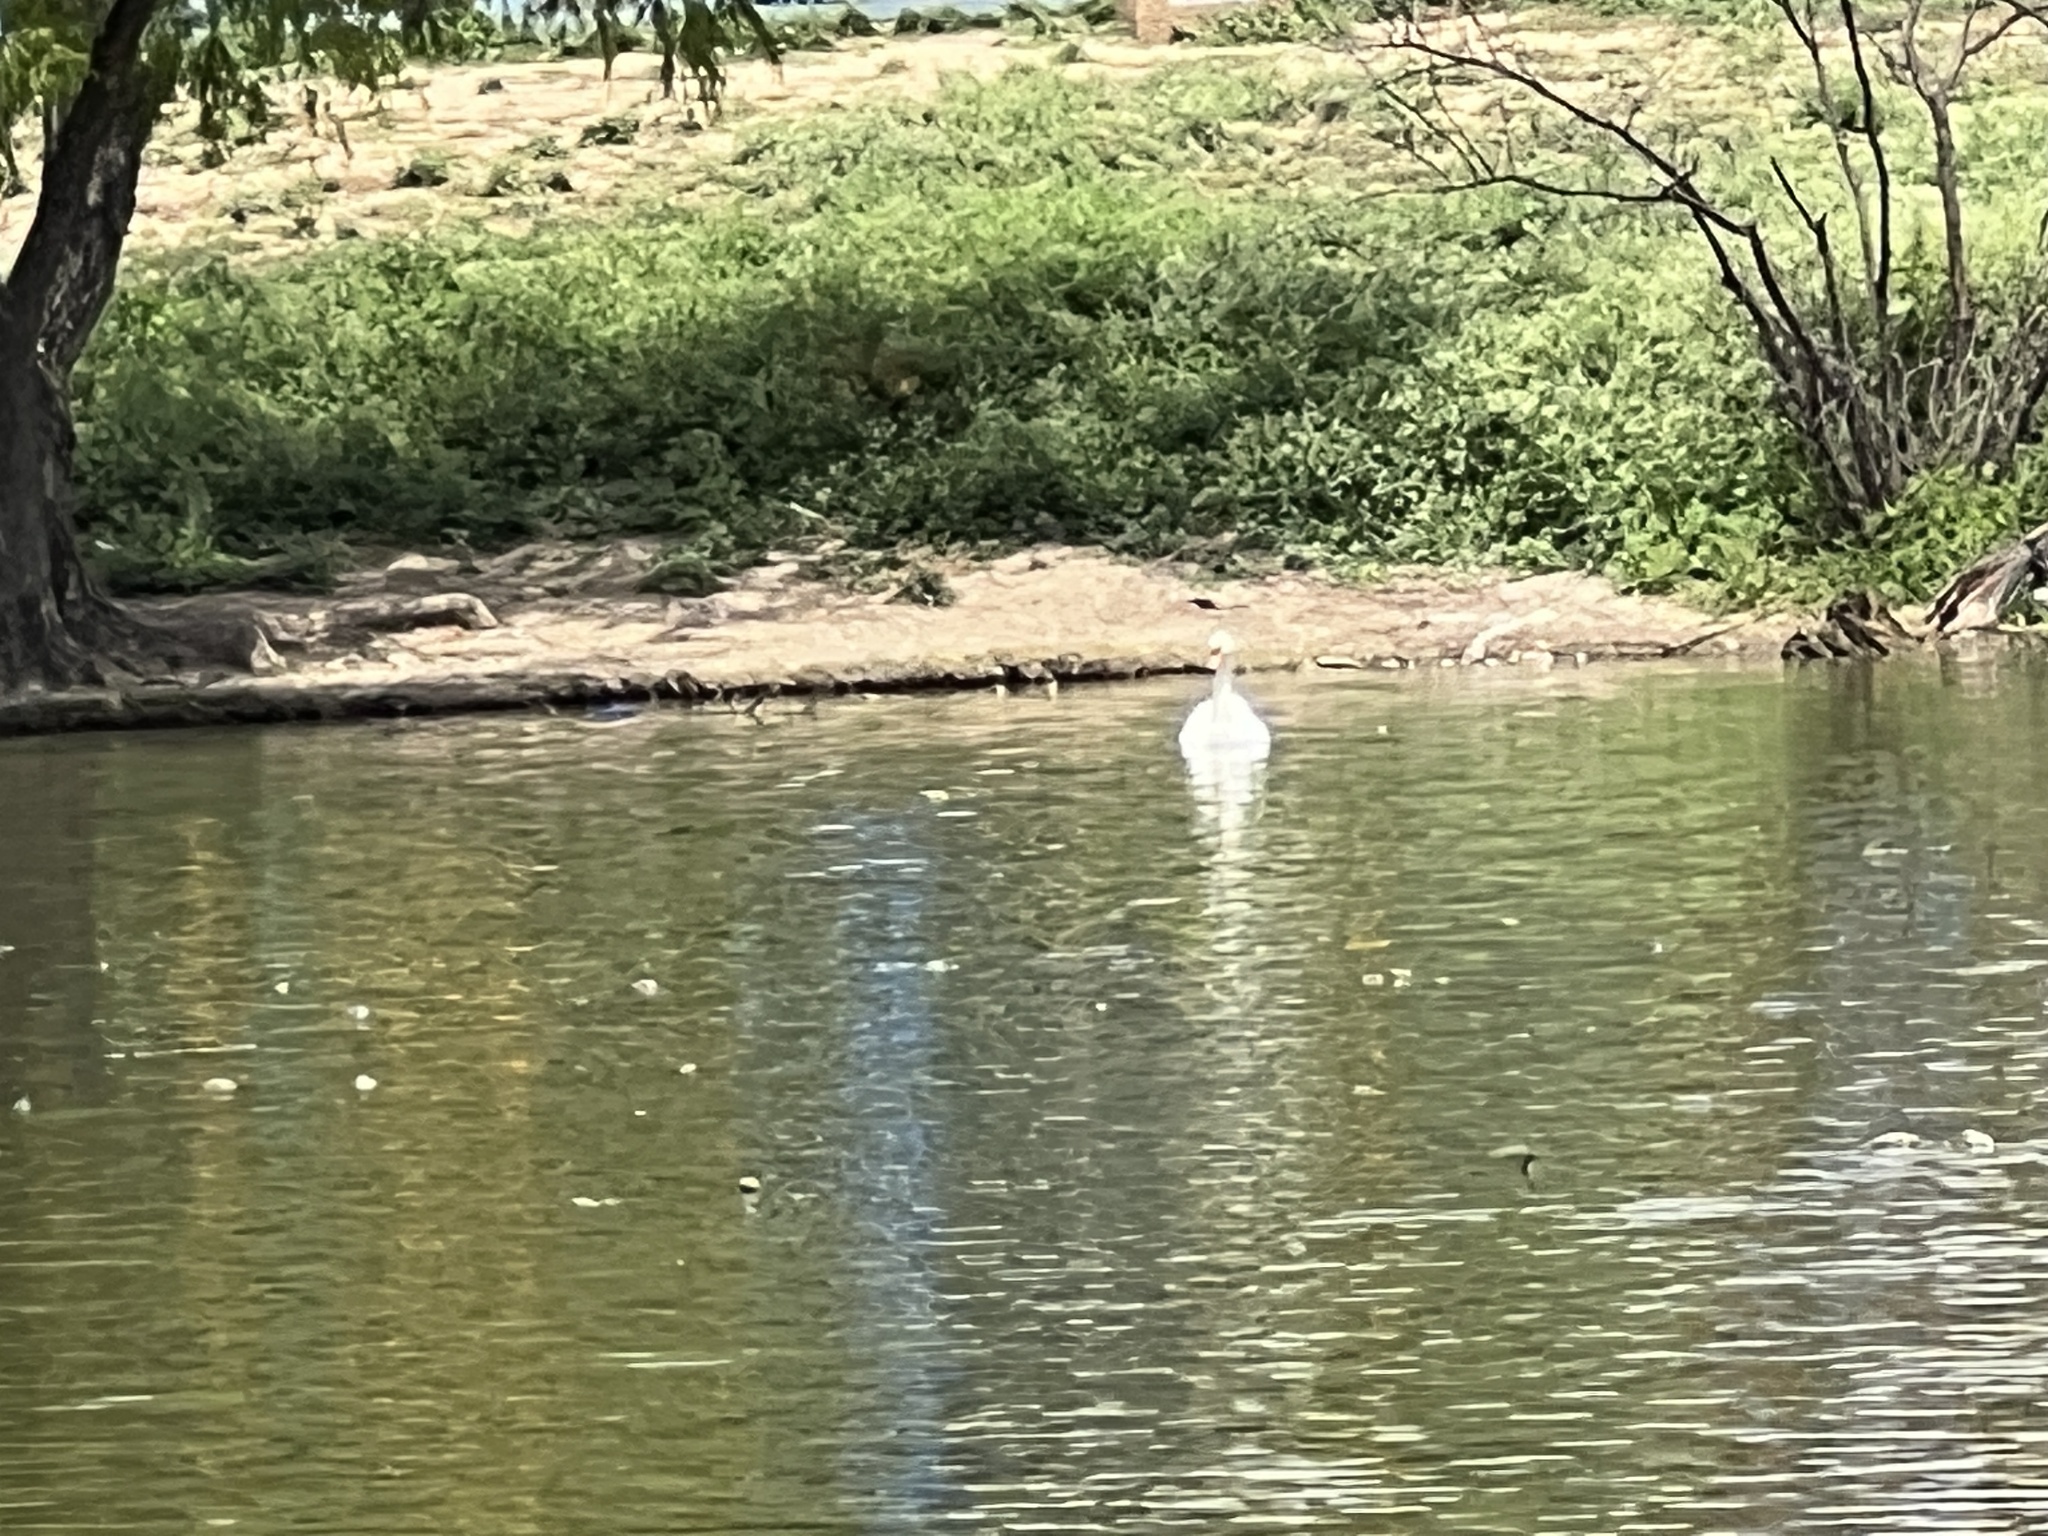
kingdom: Animalia
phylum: Chordata
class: Aves
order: Anseriformes
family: Anatidae
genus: Cygnus
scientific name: Cygnus olor
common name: Mute swan
